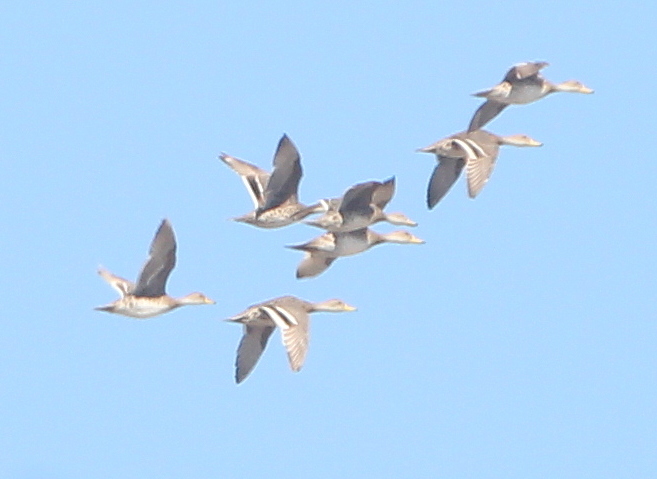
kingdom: Animalia
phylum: Chordata
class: Aves
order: Anseriformes
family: Anatidae
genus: Anas
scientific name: Anas georgica
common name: Yellow-billed pintail
